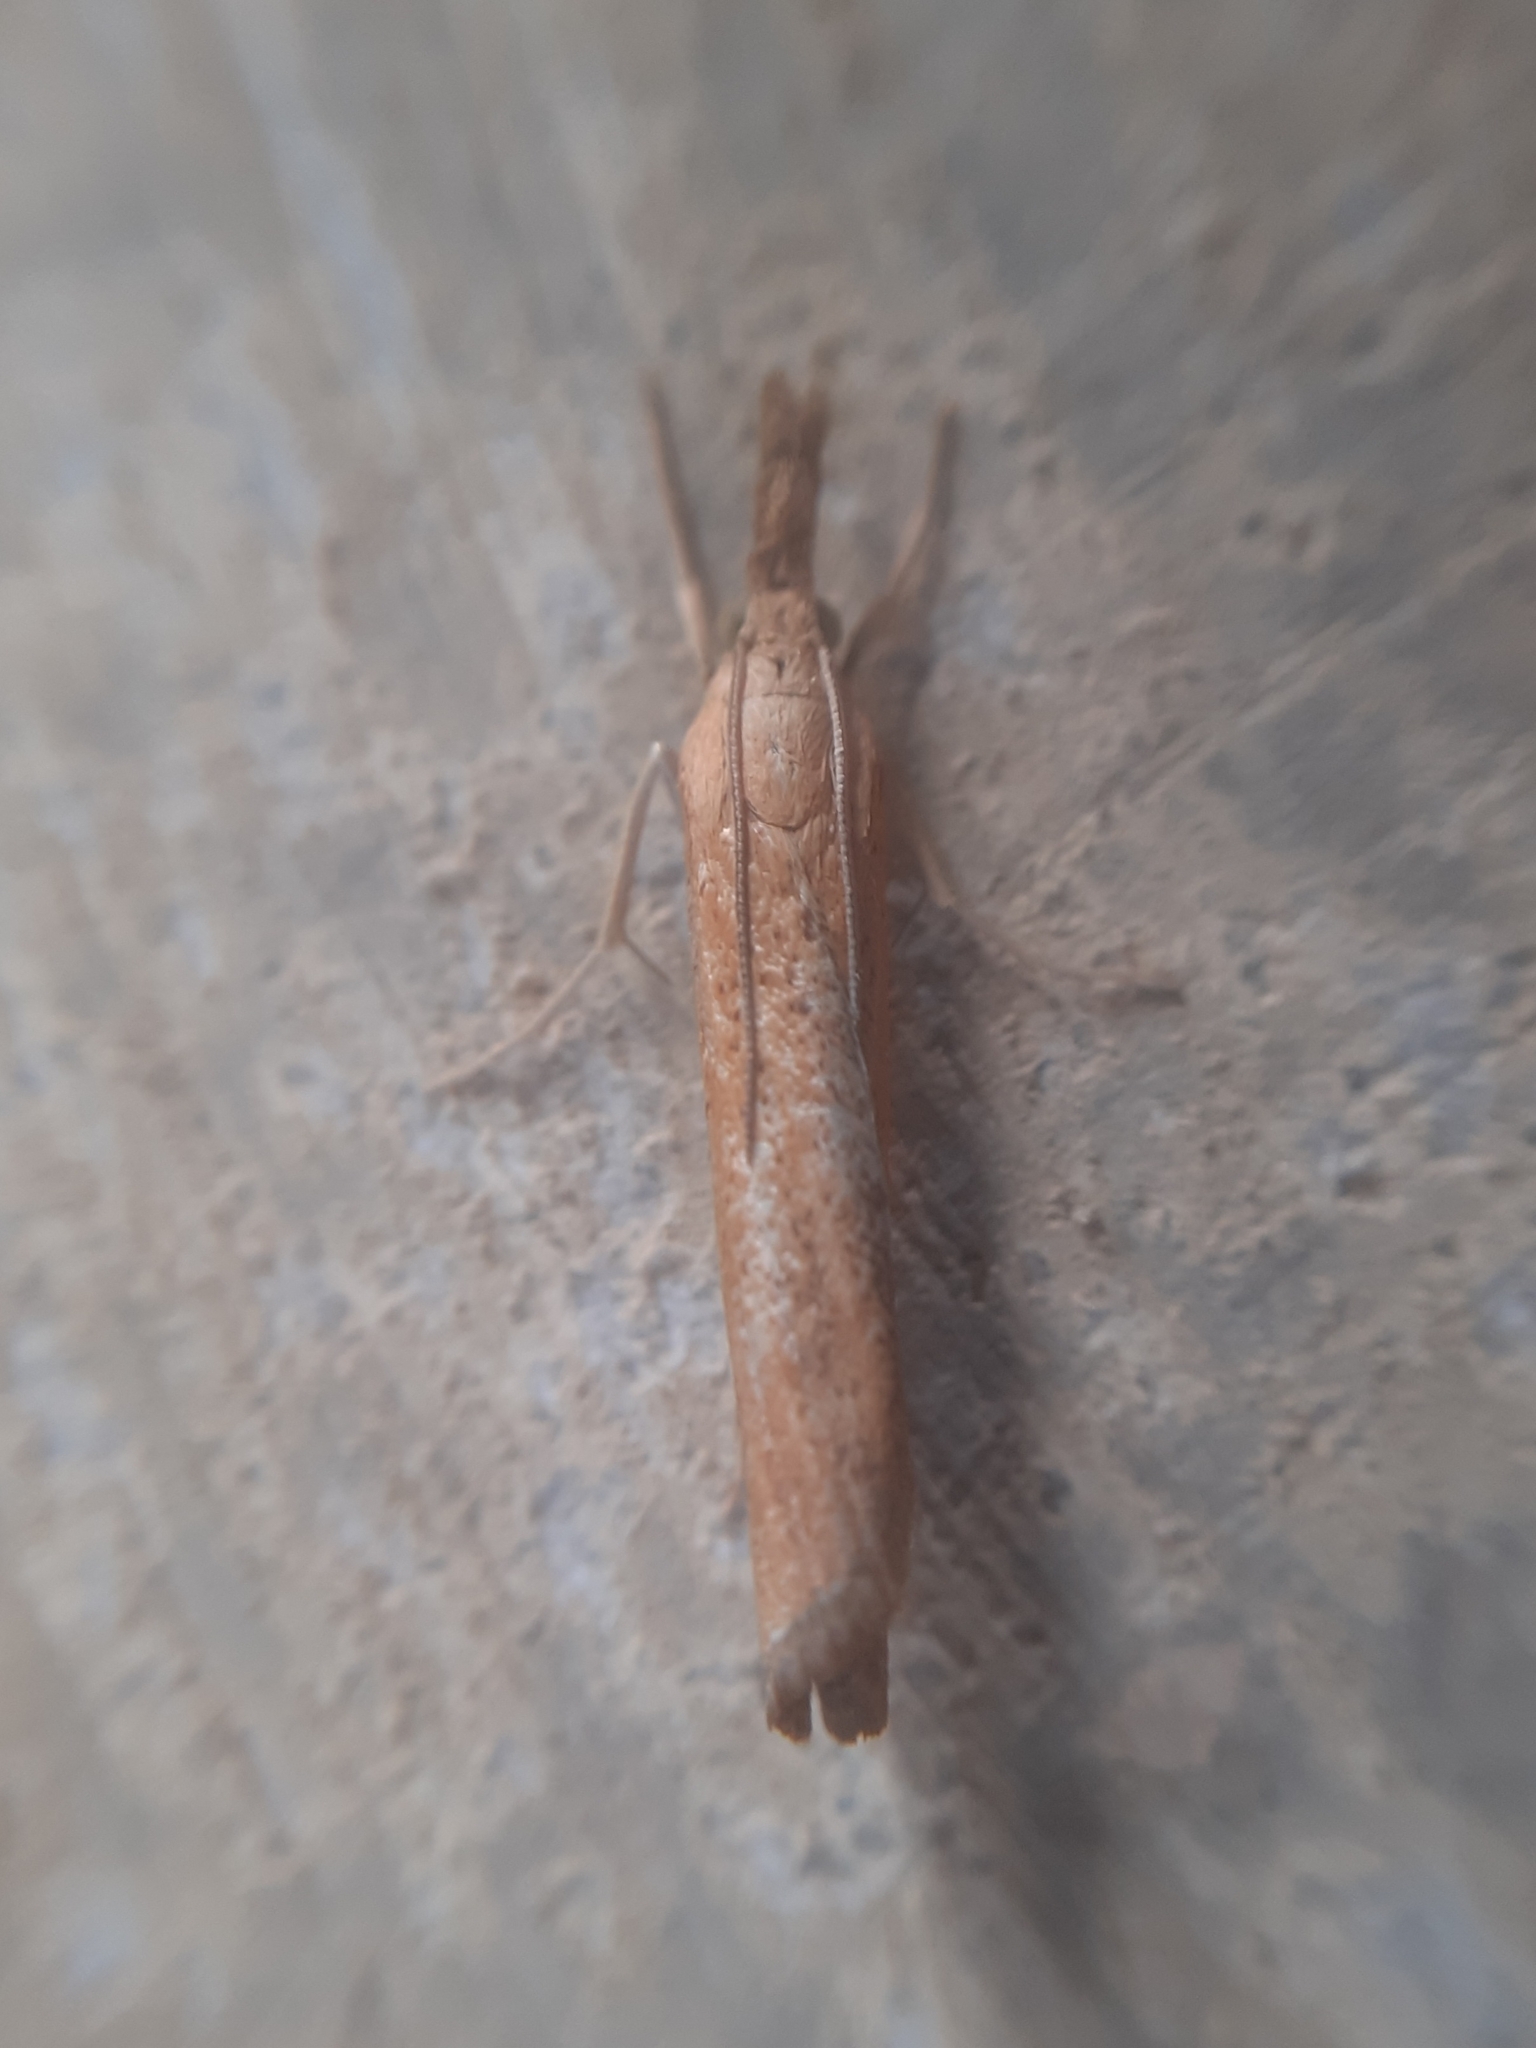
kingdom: Animalia
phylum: Arthropoda
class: Insecta
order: Lepidoptera
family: Crambidae
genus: Pediasia
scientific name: Pediasia luteella
